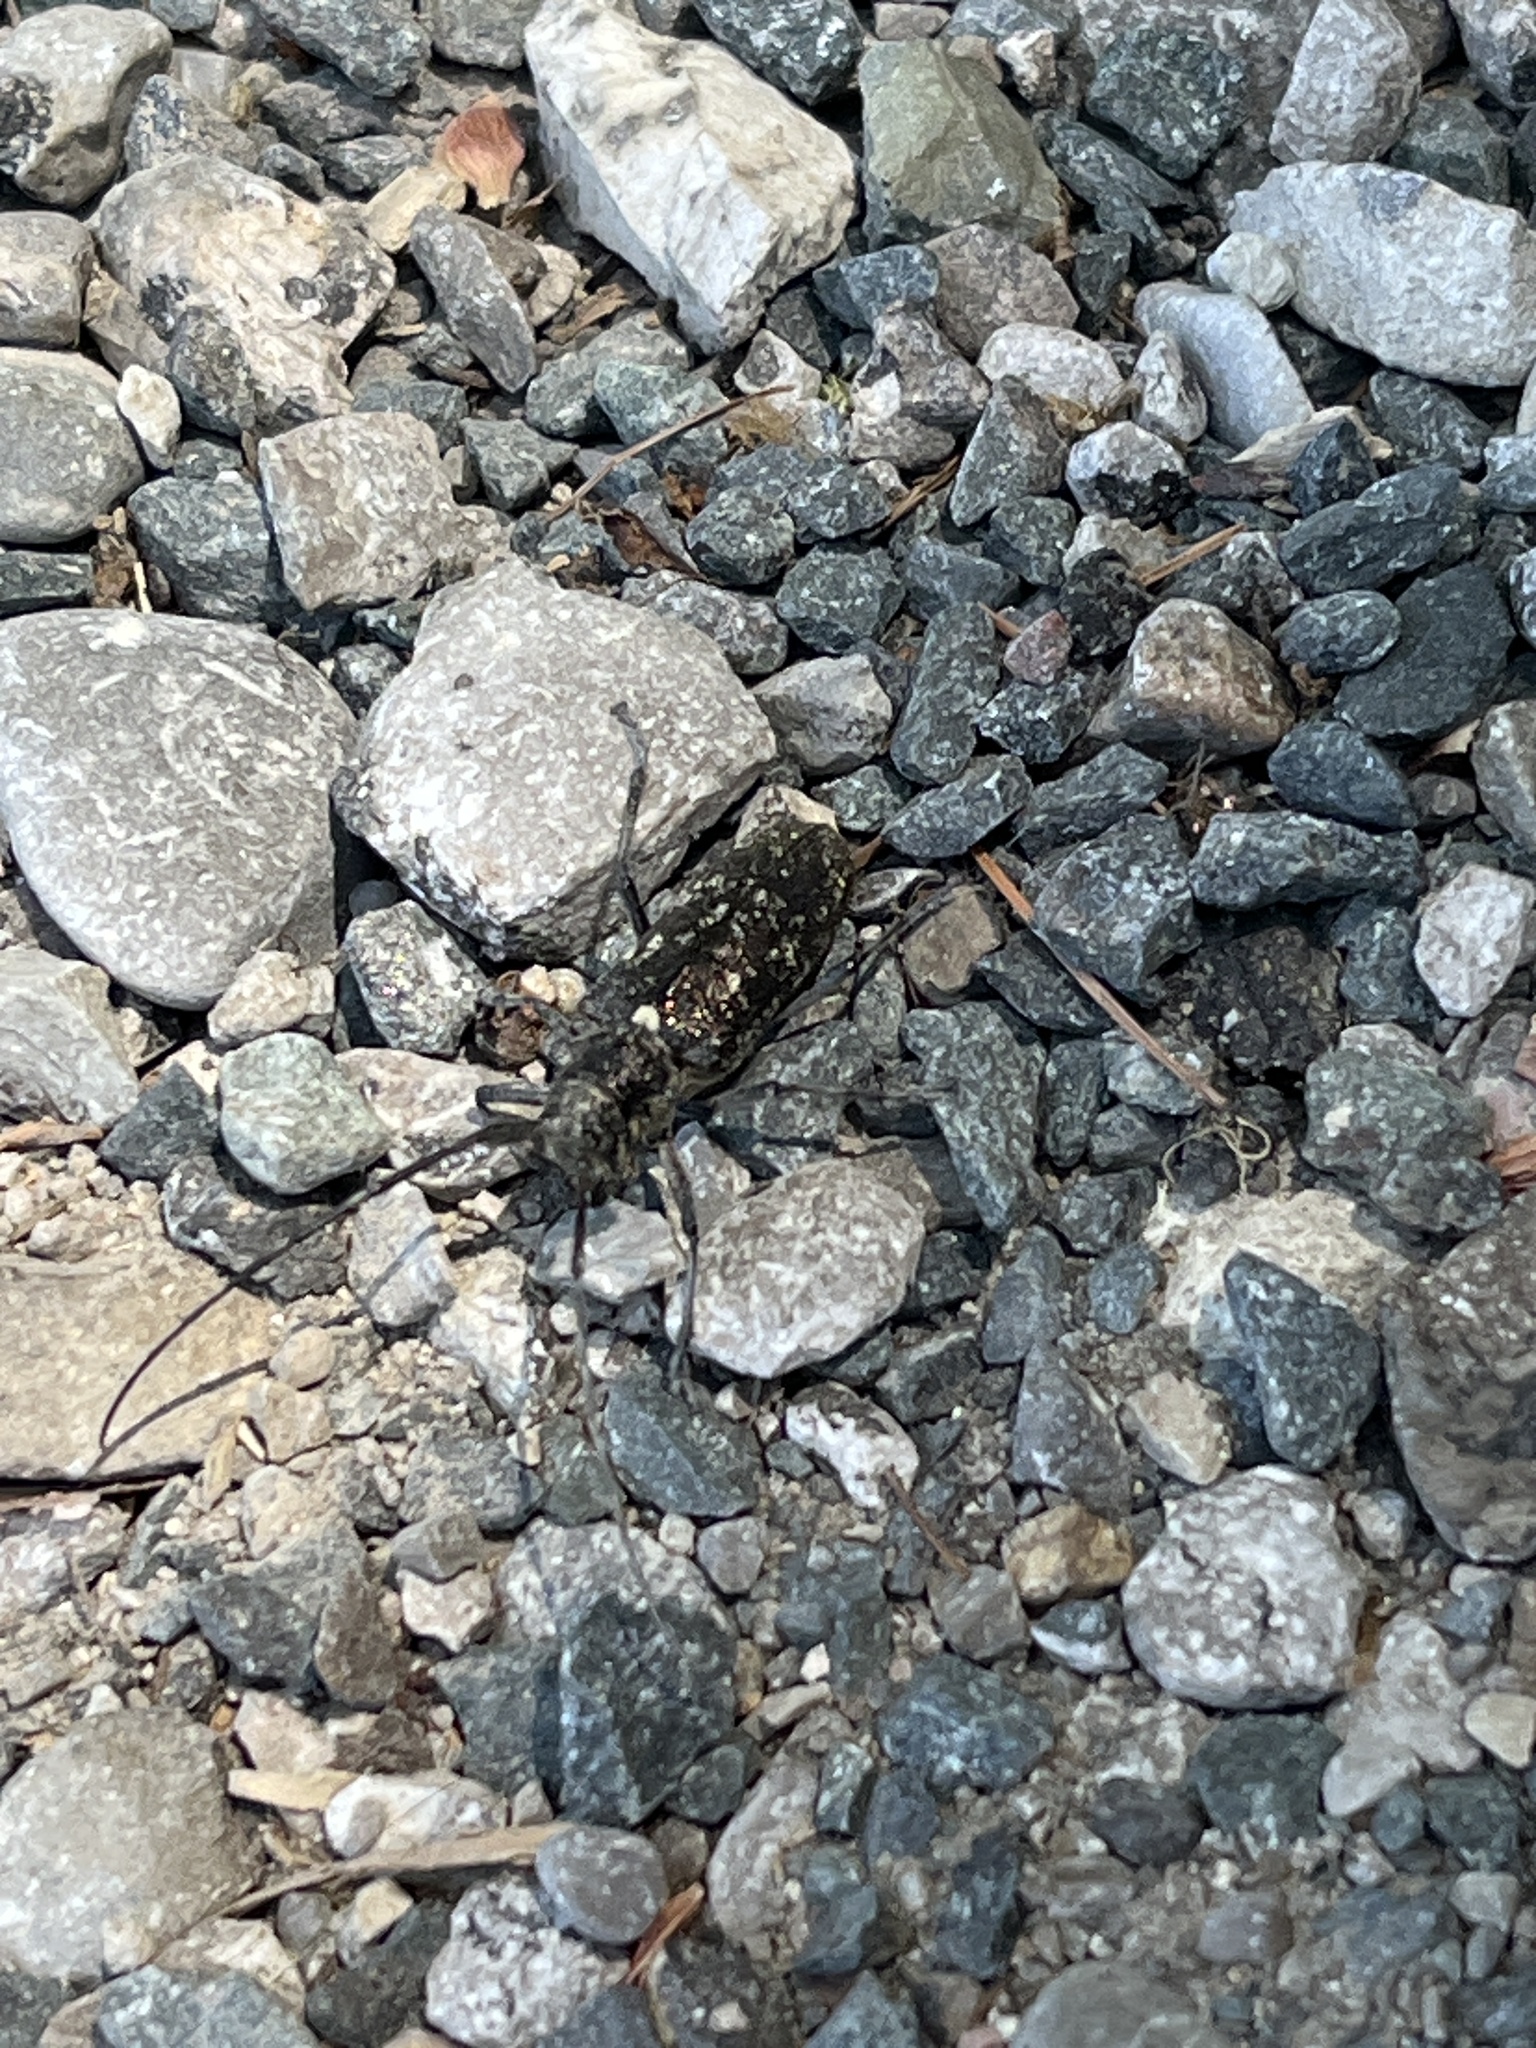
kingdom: Animalia
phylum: Arthropoda
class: Insecta
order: Coleoptera
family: Cerambycidae
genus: Monochamus
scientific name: Monochamus scutellatus
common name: White-spotted sawyer beetle
